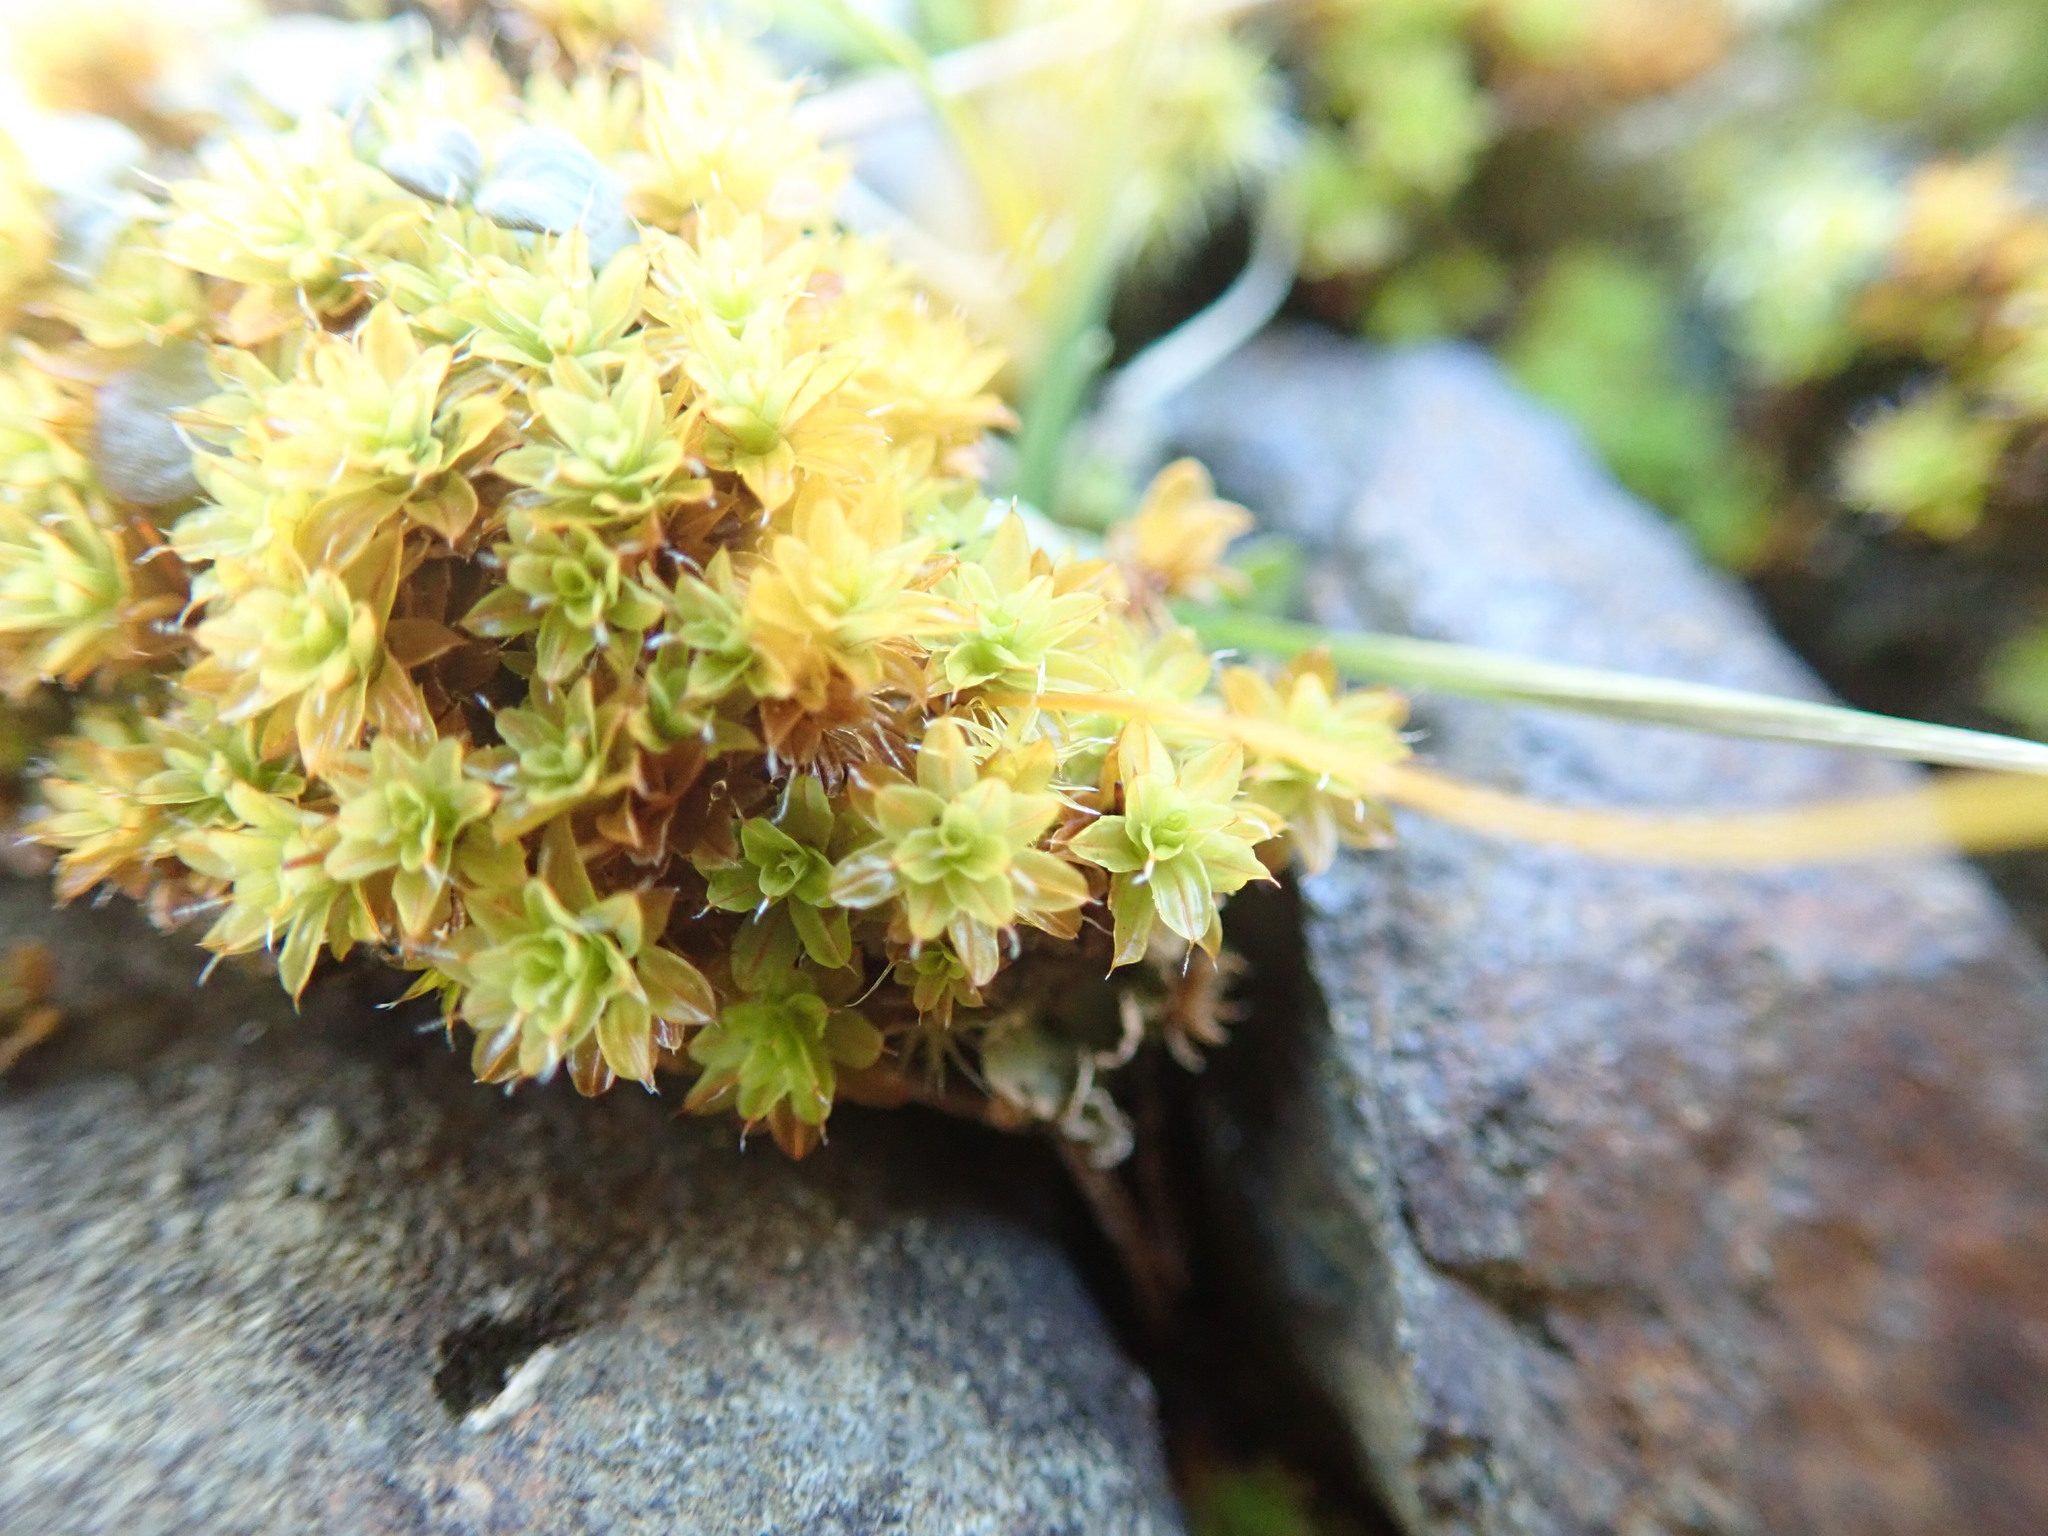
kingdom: Plantae
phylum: Bryophyta
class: Bryopsida
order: Pottiales
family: Pottiaceae
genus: Syntrichia
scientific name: Syntrichia princeps
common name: Brown screw-moss
